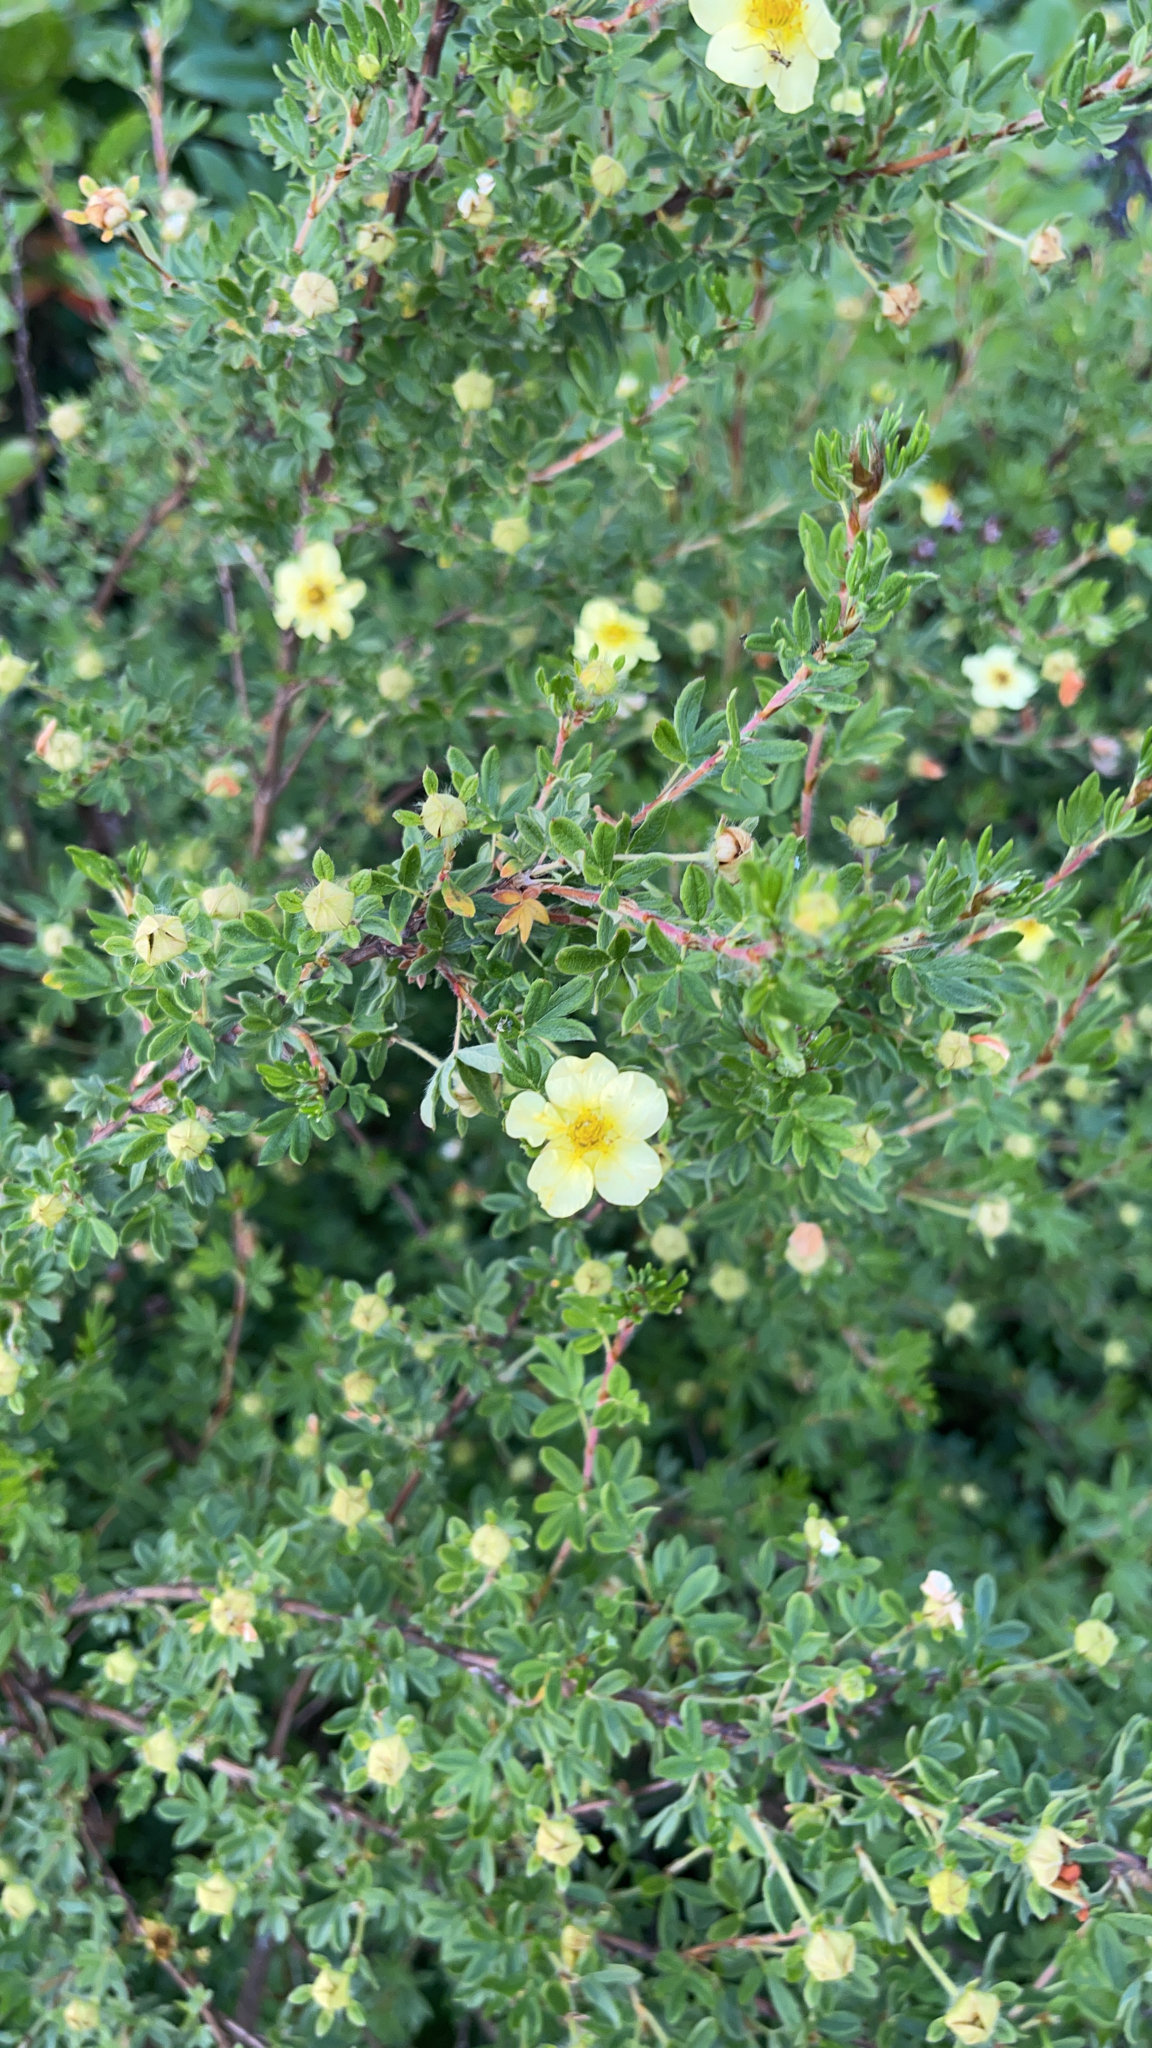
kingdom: Plantae
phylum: Tracheophyta
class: Magnoliopsida
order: Rosales
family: Rosaceae
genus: Dasiphora
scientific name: Dasiphora fruticosa
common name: Shrubby cinquefoil
